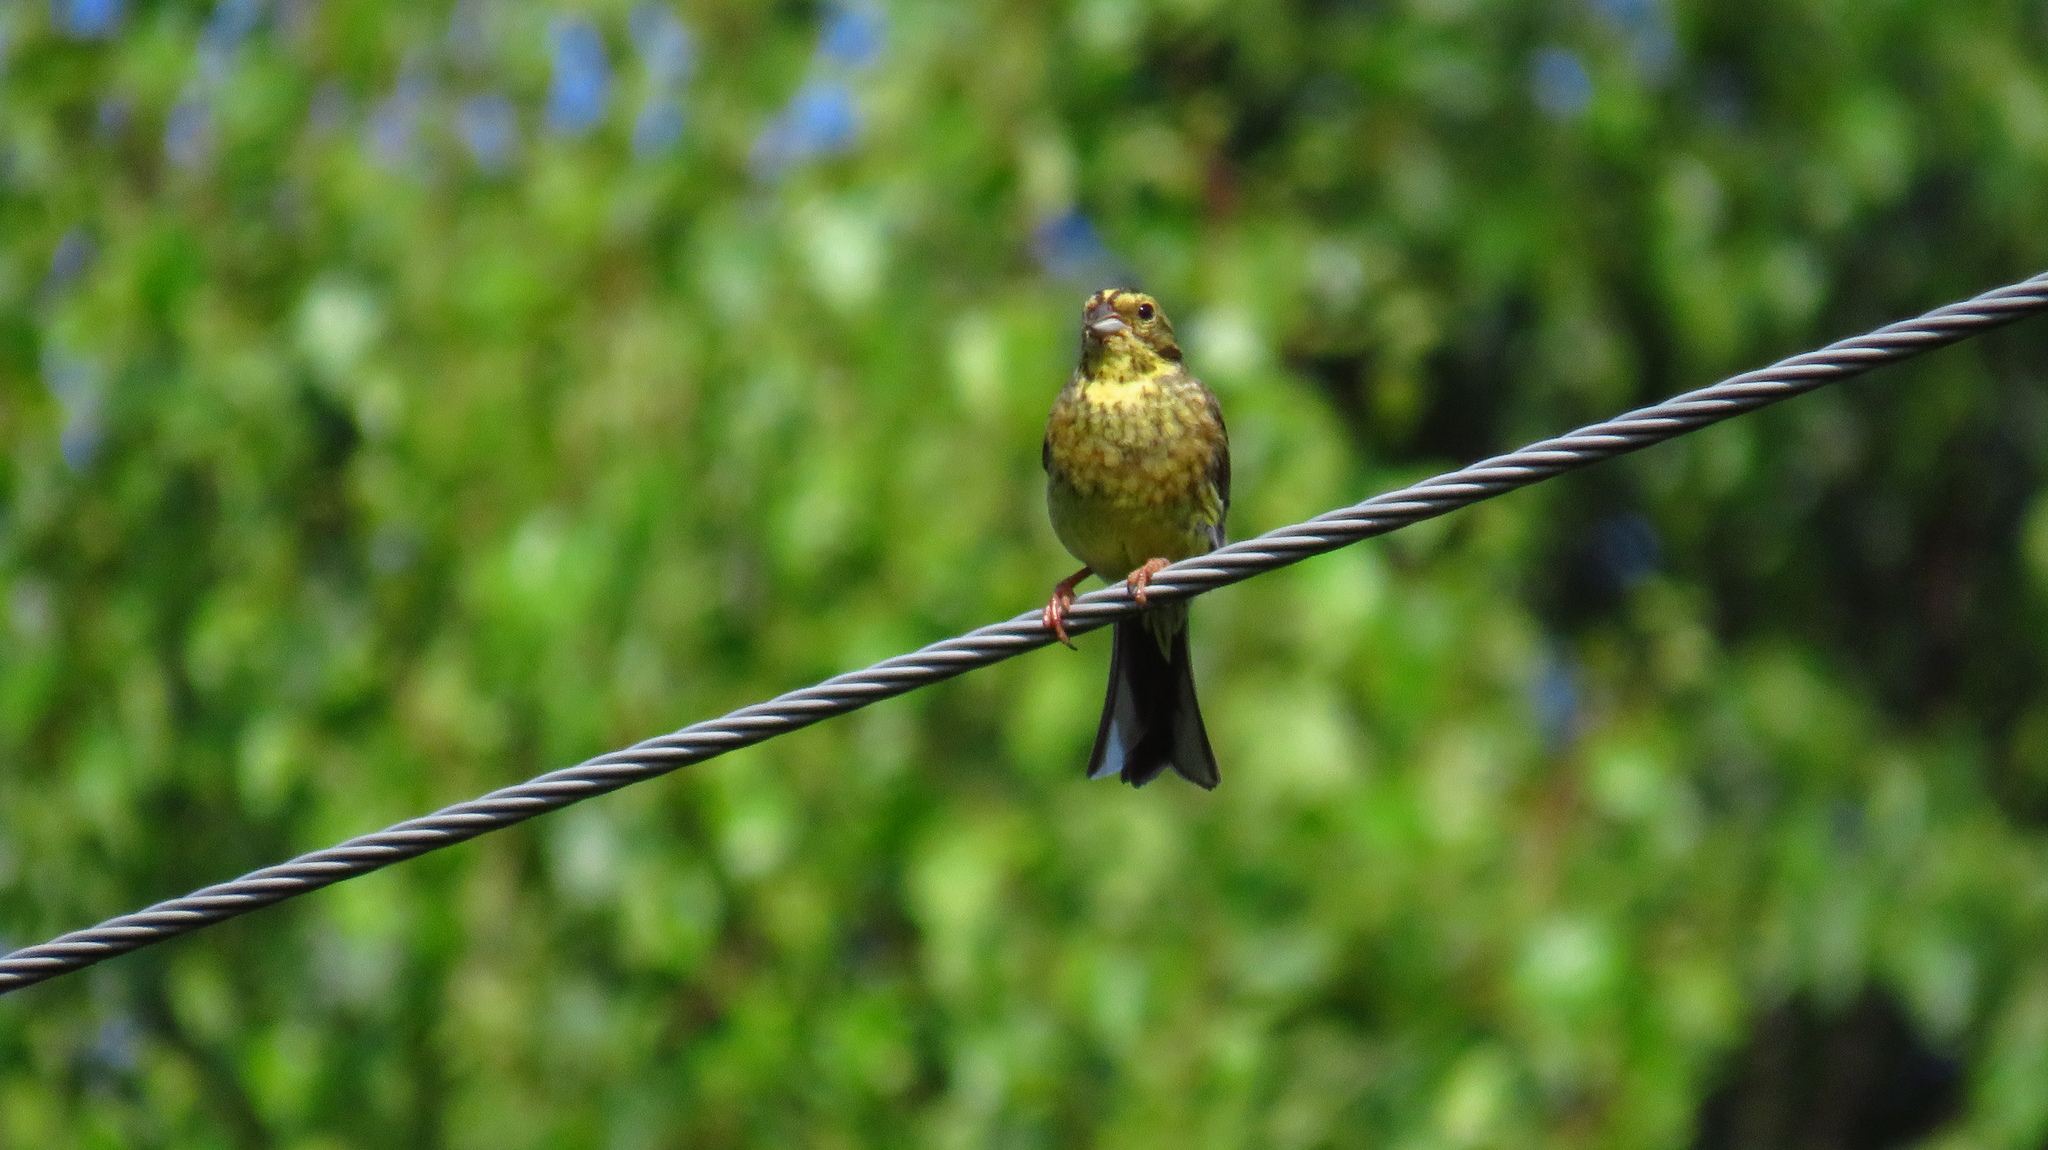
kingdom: Animalia
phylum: Chordata
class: Aves
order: Passeriformes
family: Emberizidae
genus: Emberiza
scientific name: Emberiza citrinella
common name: Yellowhammer
